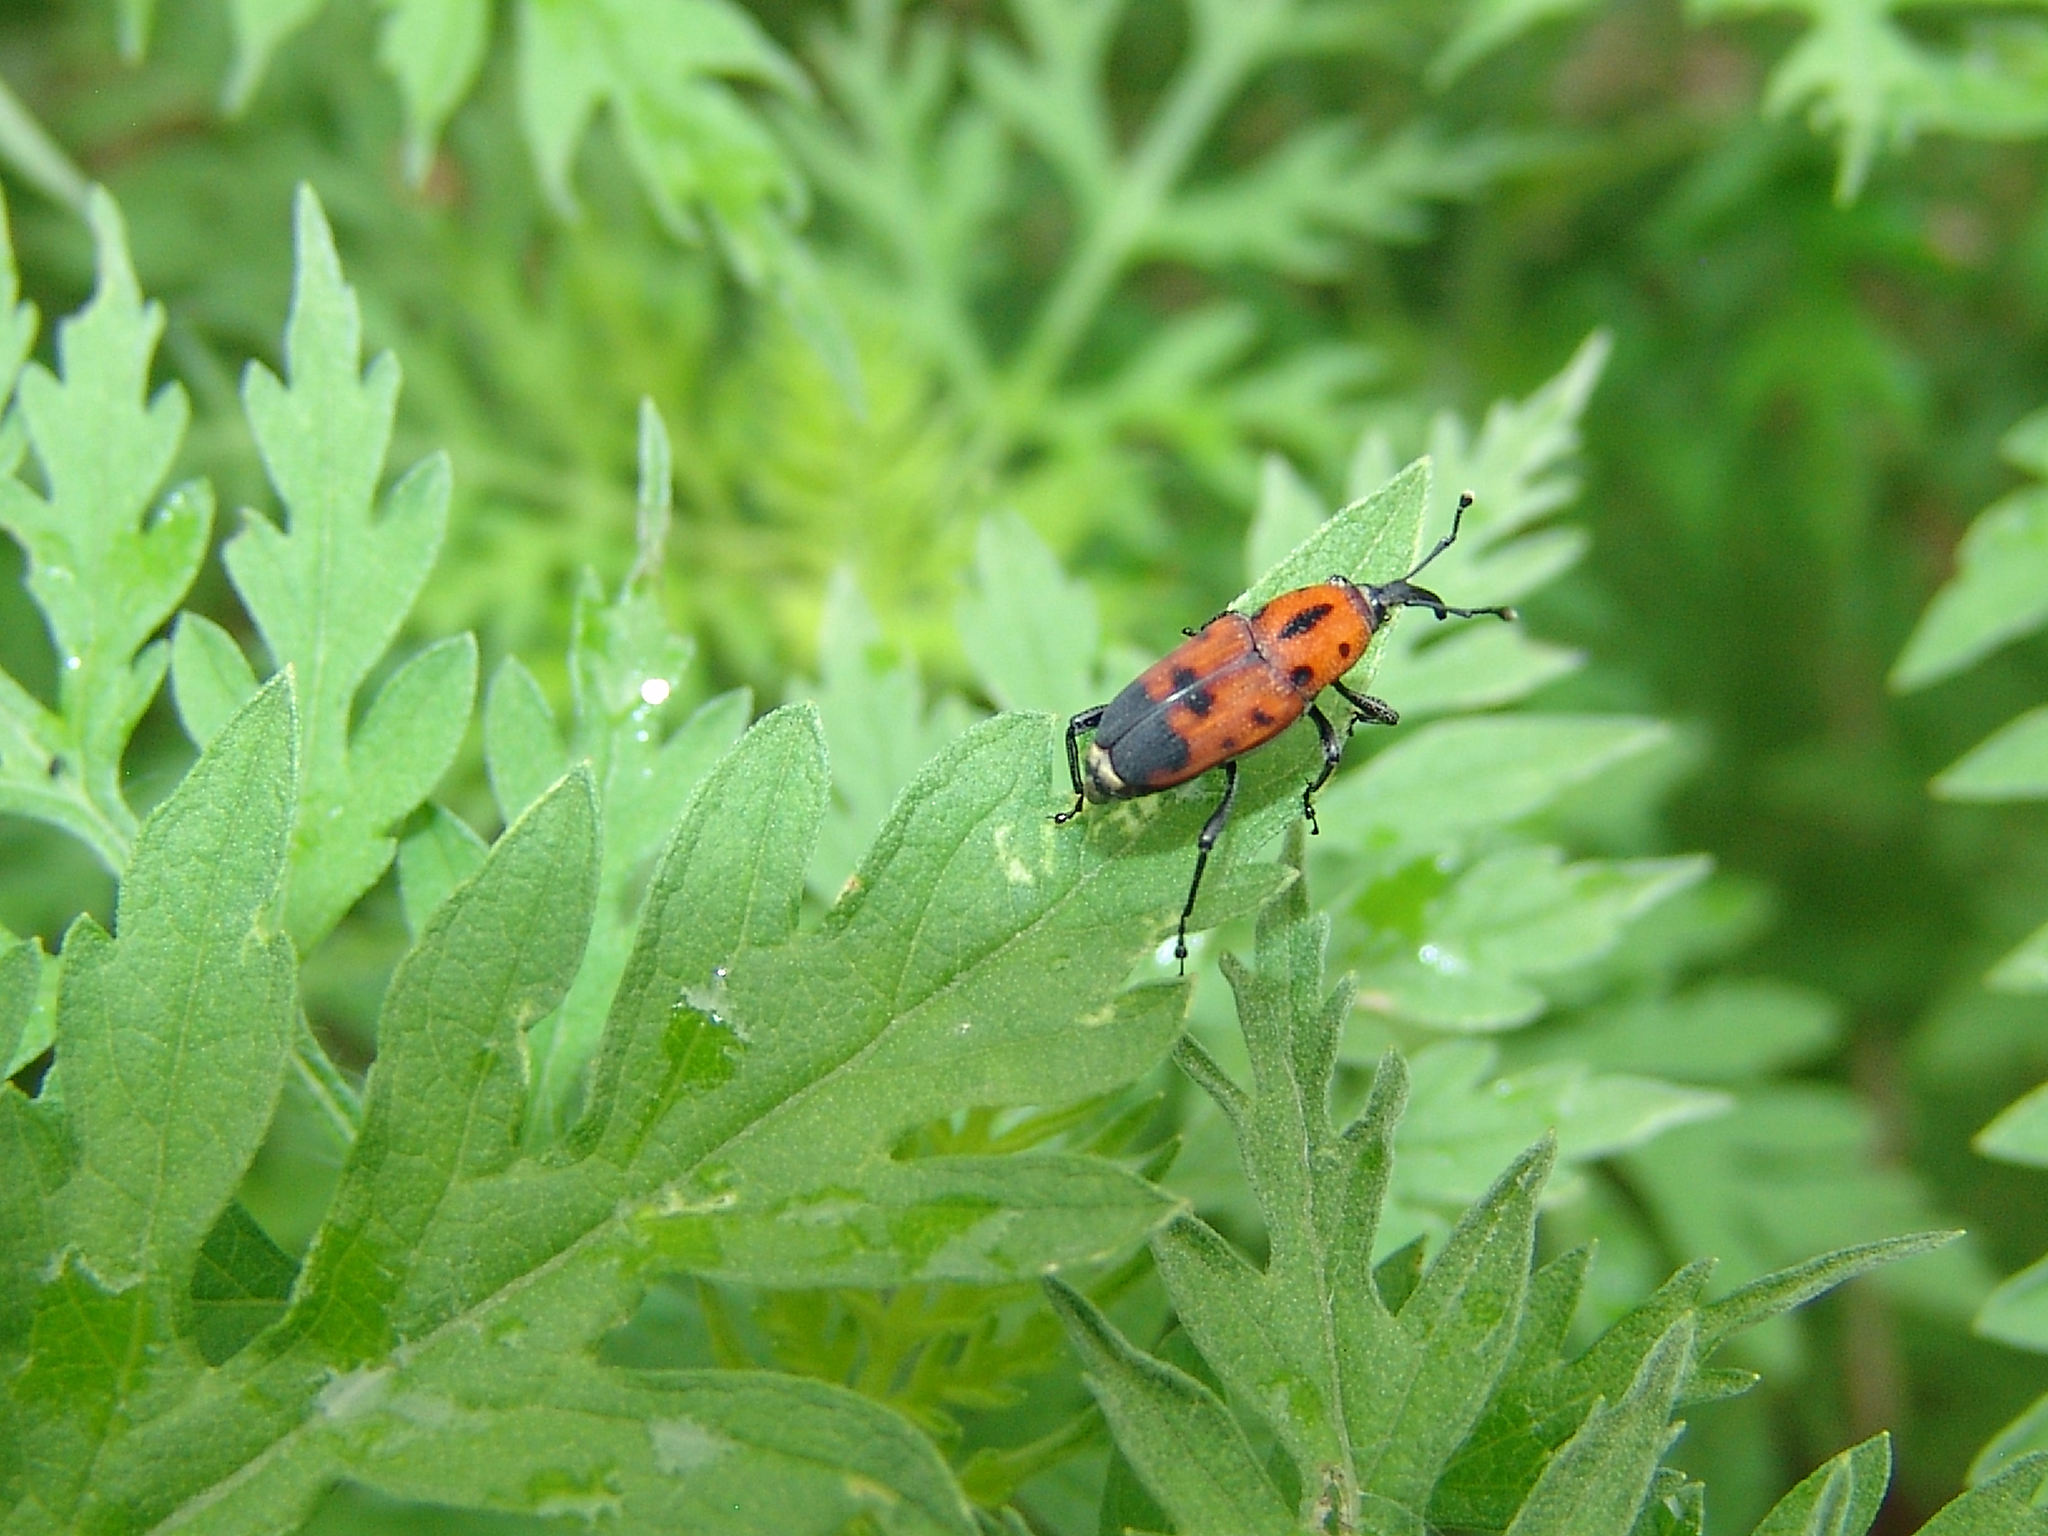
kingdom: Animalia
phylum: Arthropoda
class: Insecta
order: Coleoptera
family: Dryophthoridae
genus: Rhodobaenus
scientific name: Rhodobaenus quinquepunctatus
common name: Cocklebur weevil
